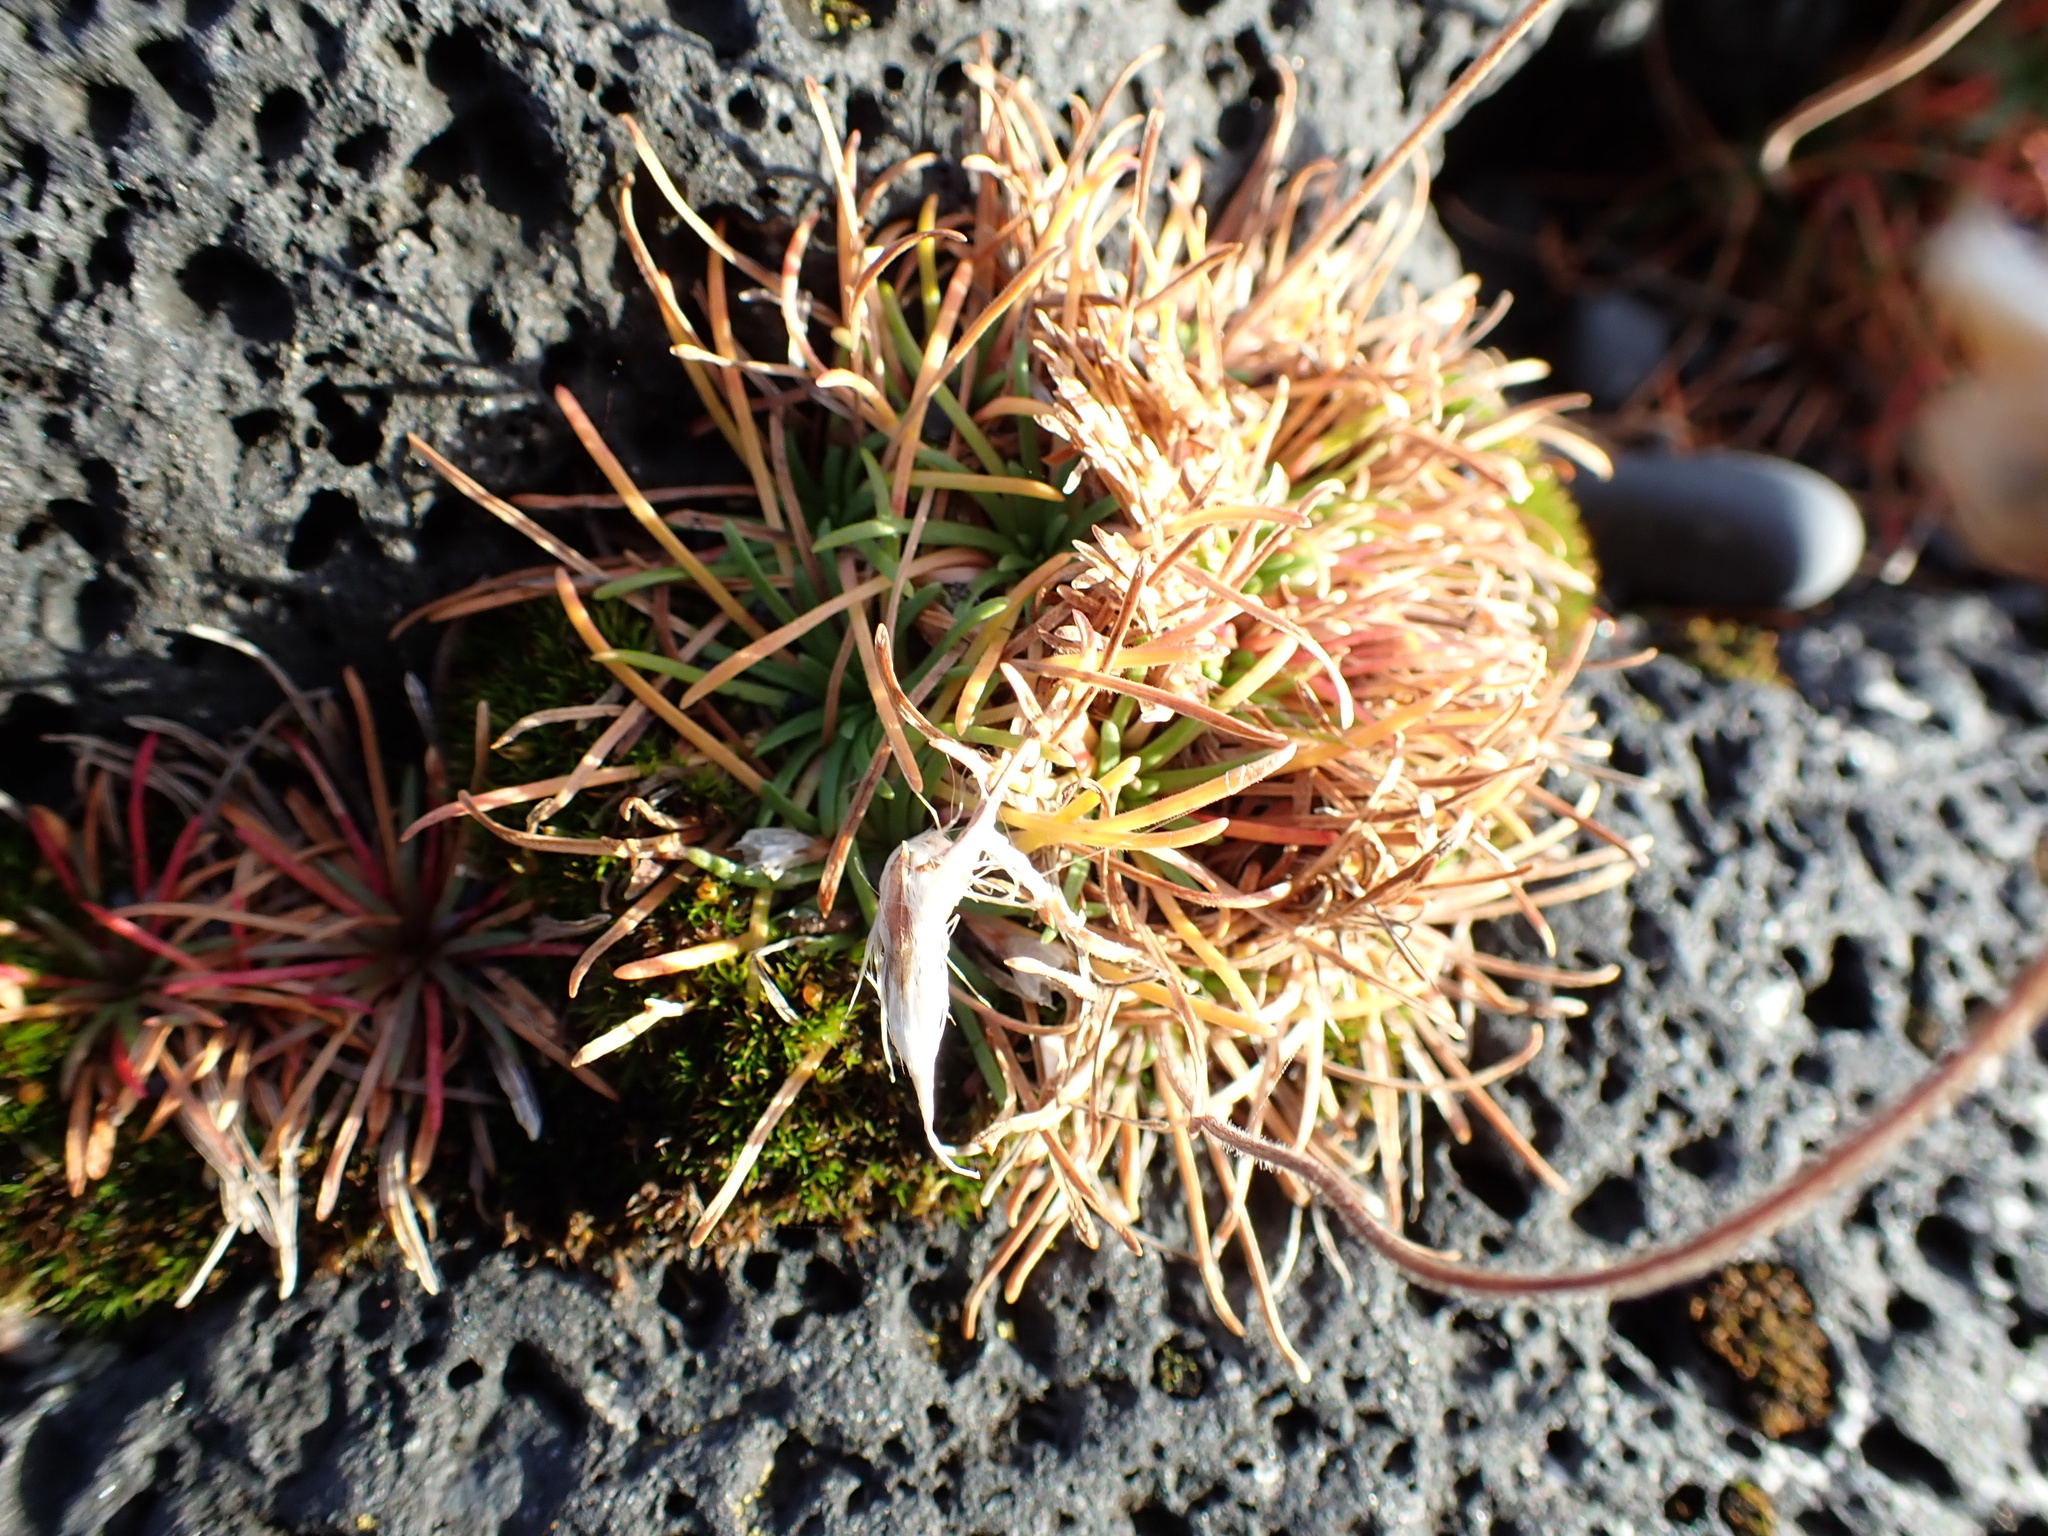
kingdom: Plantae
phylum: Tracheophyta
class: Magnoliopsida
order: Caryophyllales
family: Plumbaginaceae
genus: Armeria
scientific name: Armeria maritima
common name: Thrift
